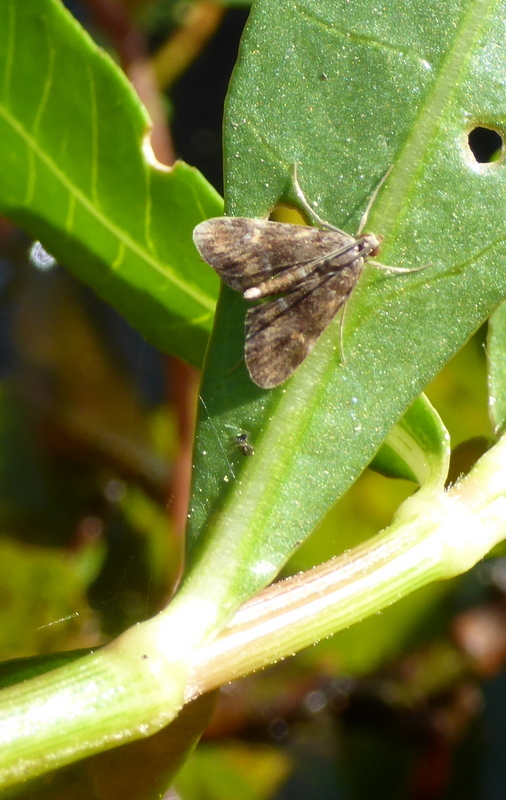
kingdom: Animalia
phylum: Arthropoda
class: Insecta
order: Lepidoptera
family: Crambidae
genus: Elophila
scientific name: Elophila obliteralis
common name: Waterlily leafcutter moth
